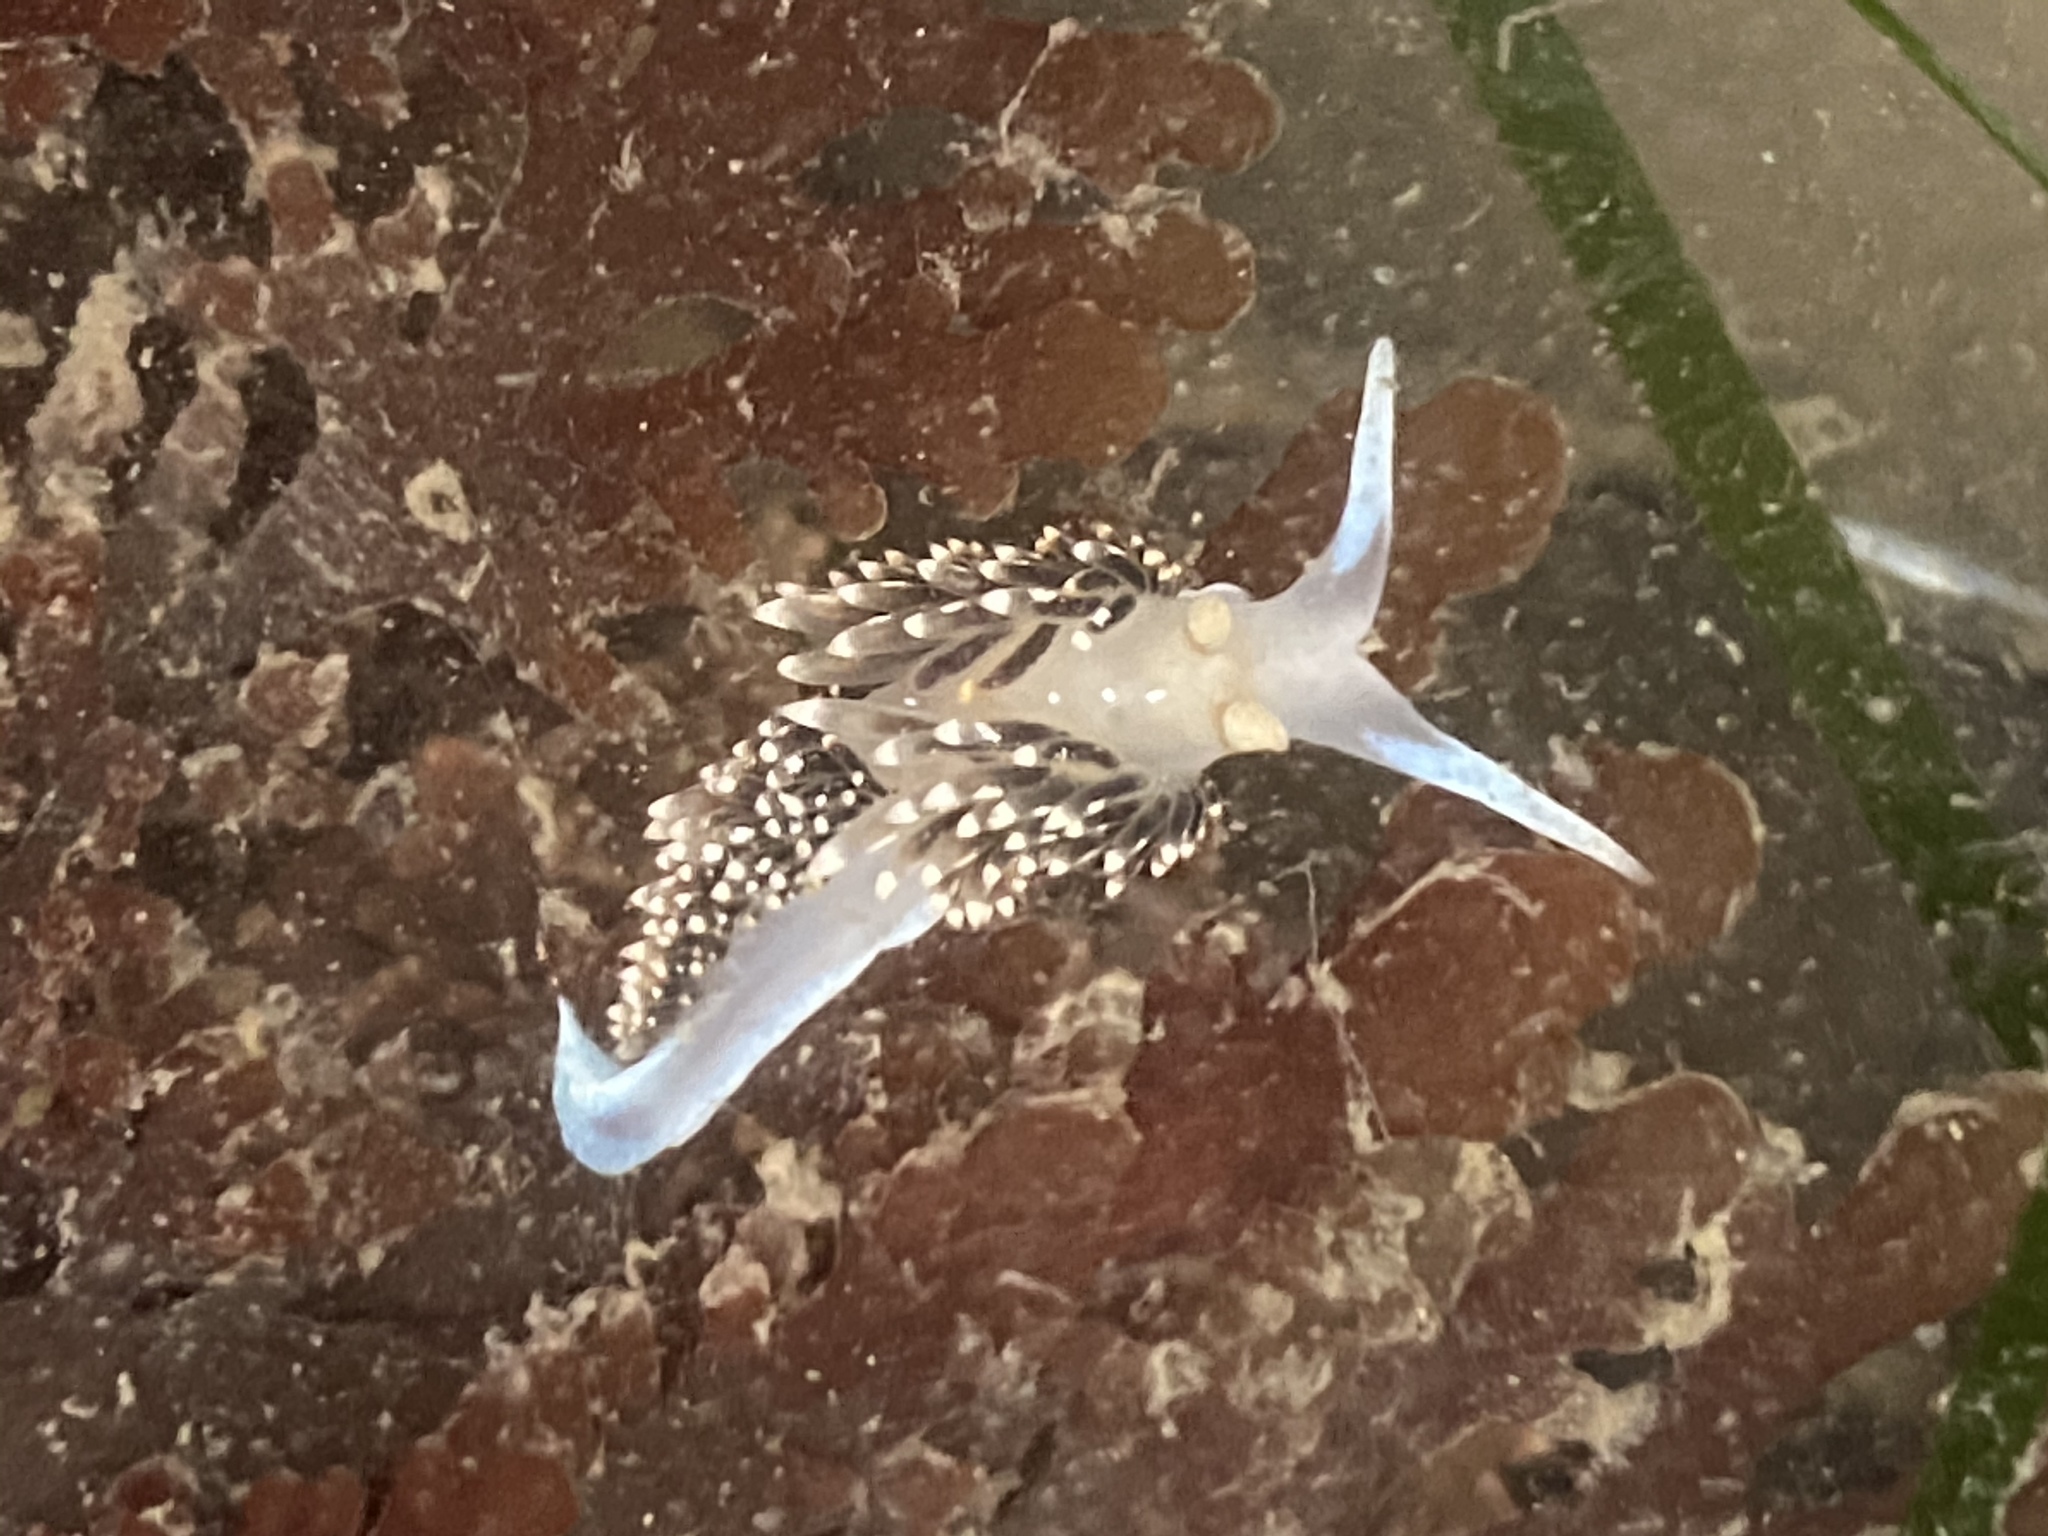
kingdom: Animalia
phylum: Mollusca
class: Gastropoda
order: Nudibranchia
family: Facelinidae
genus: Phidiana
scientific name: Phidiana hiltoni
